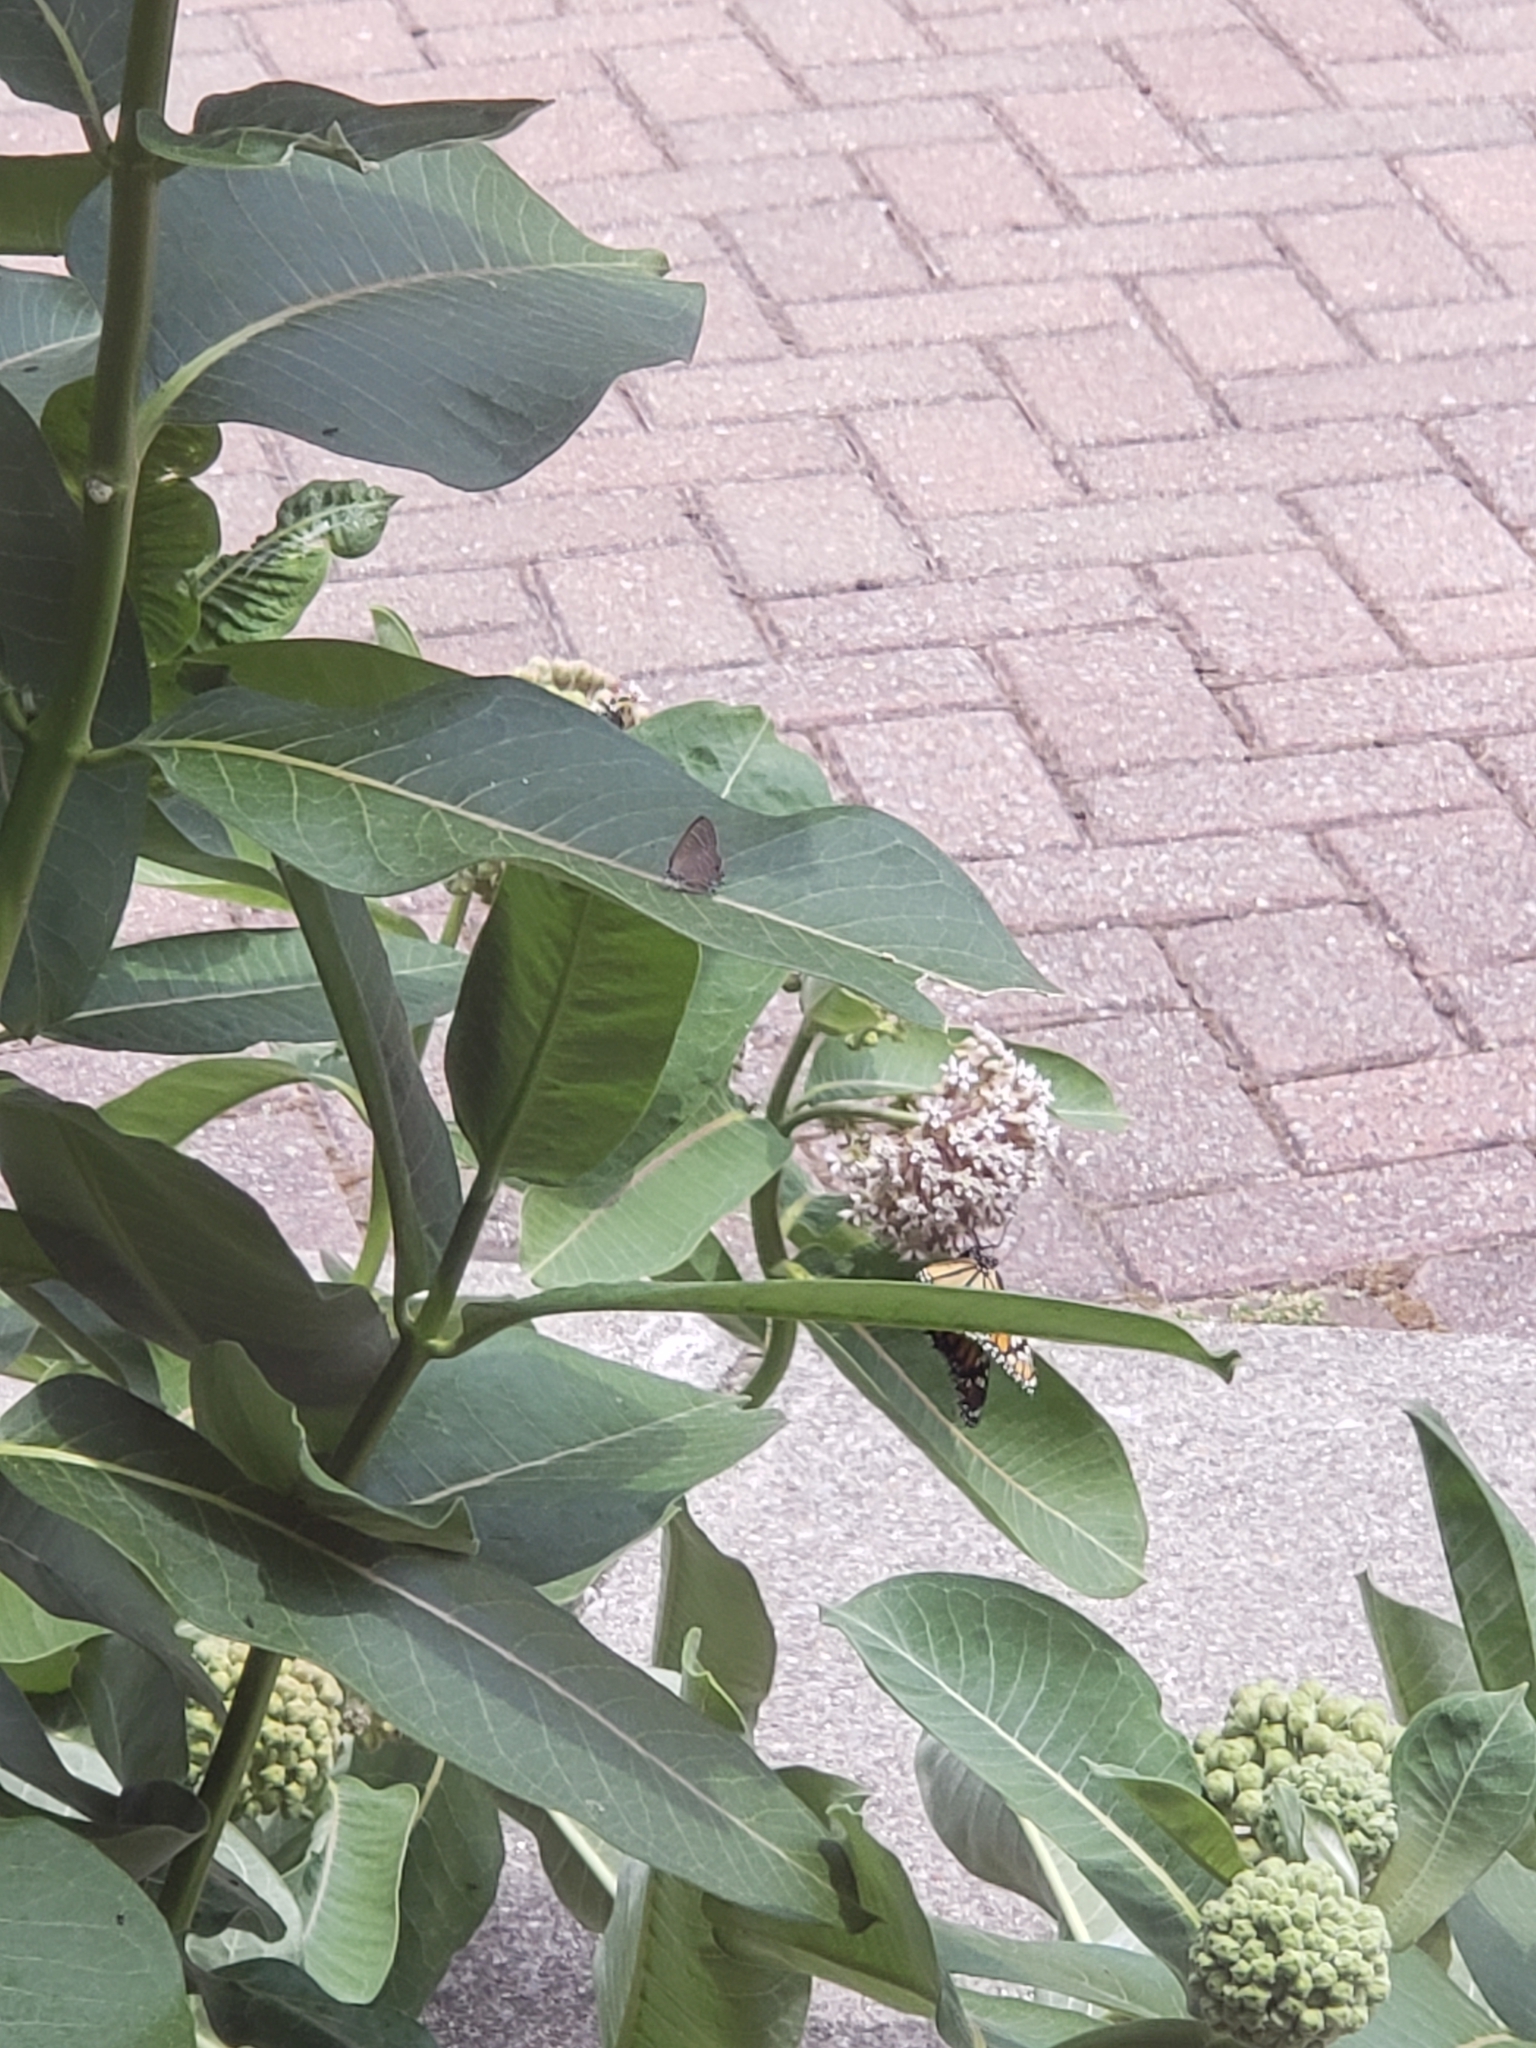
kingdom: Animalia
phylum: Arthropoda
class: Insecta
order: Lepidoptera
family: Nymphalidae
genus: Danaus
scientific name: Danaus plexippus
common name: Monarch
